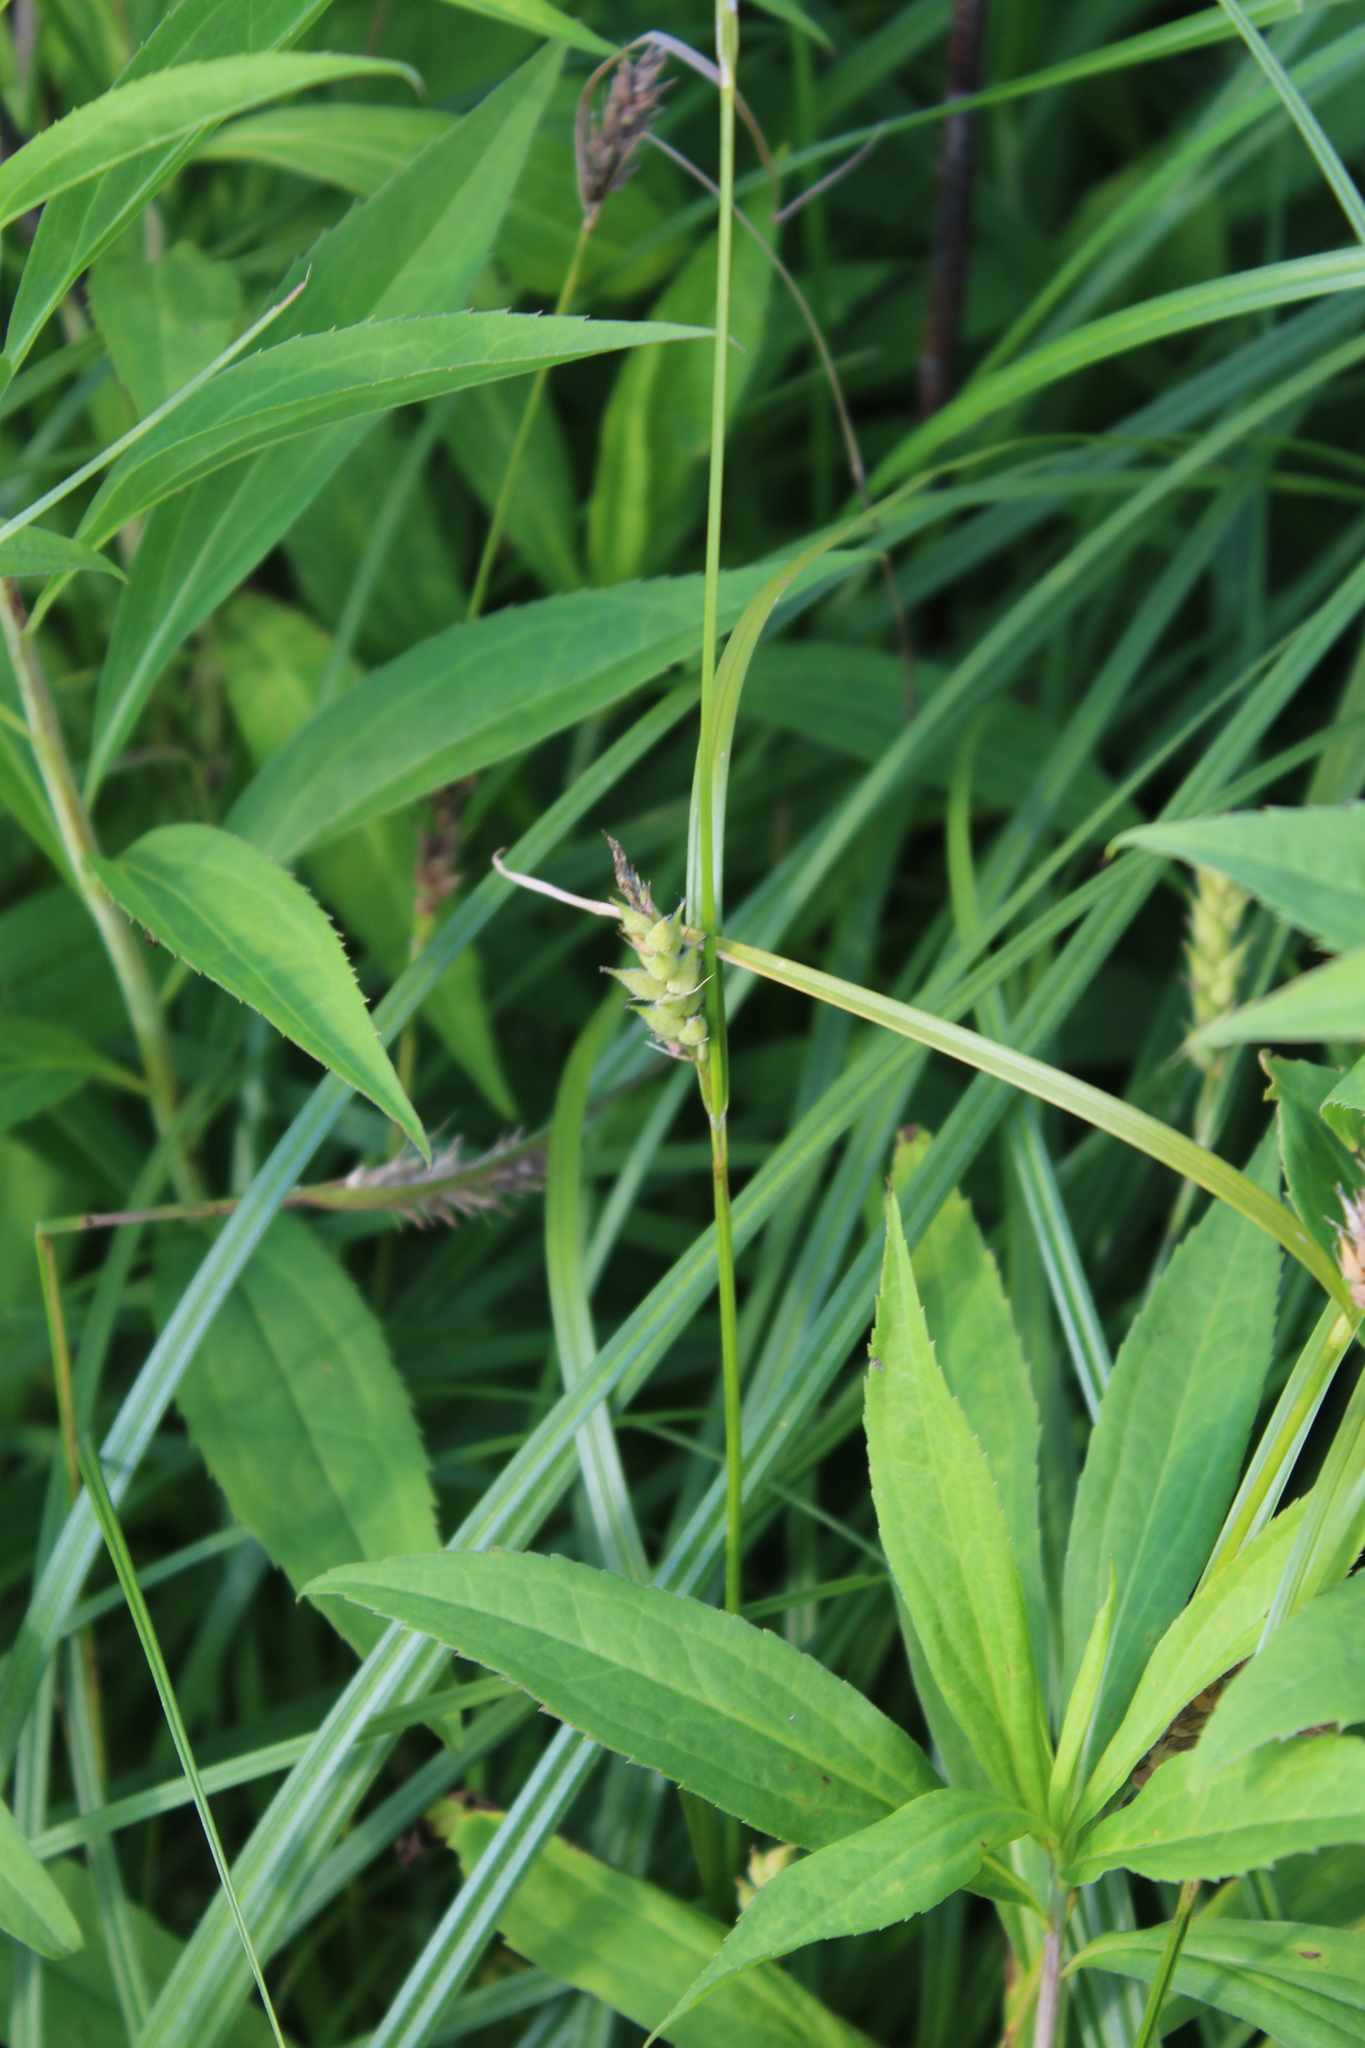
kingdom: Plantae
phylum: Tracheophyta
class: Liliopsida
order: Poales
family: Cyperaceae
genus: Carex
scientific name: Carex hirta
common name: Hairy sedge
